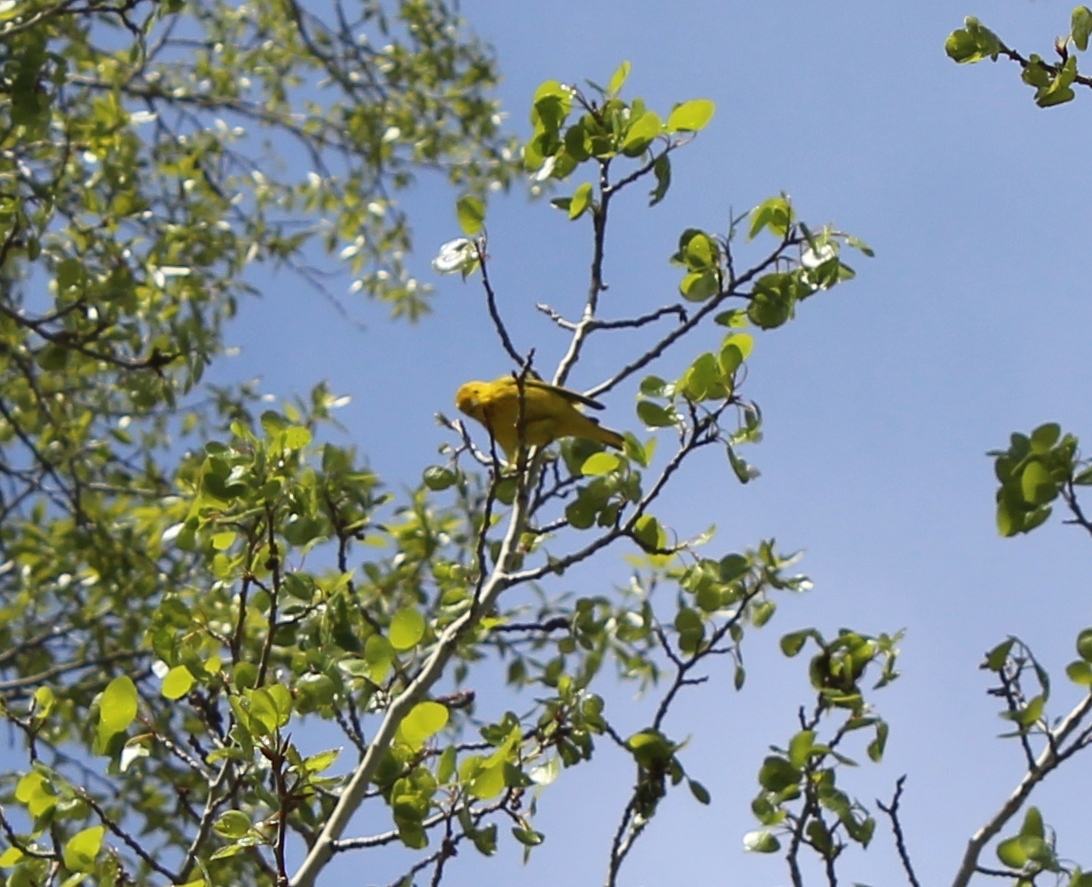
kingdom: Animalia
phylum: Chordata
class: Aves
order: Passeriformes
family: Parulidae
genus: Setophaga
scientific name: Setophaga petechia
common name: Yellow warbler
